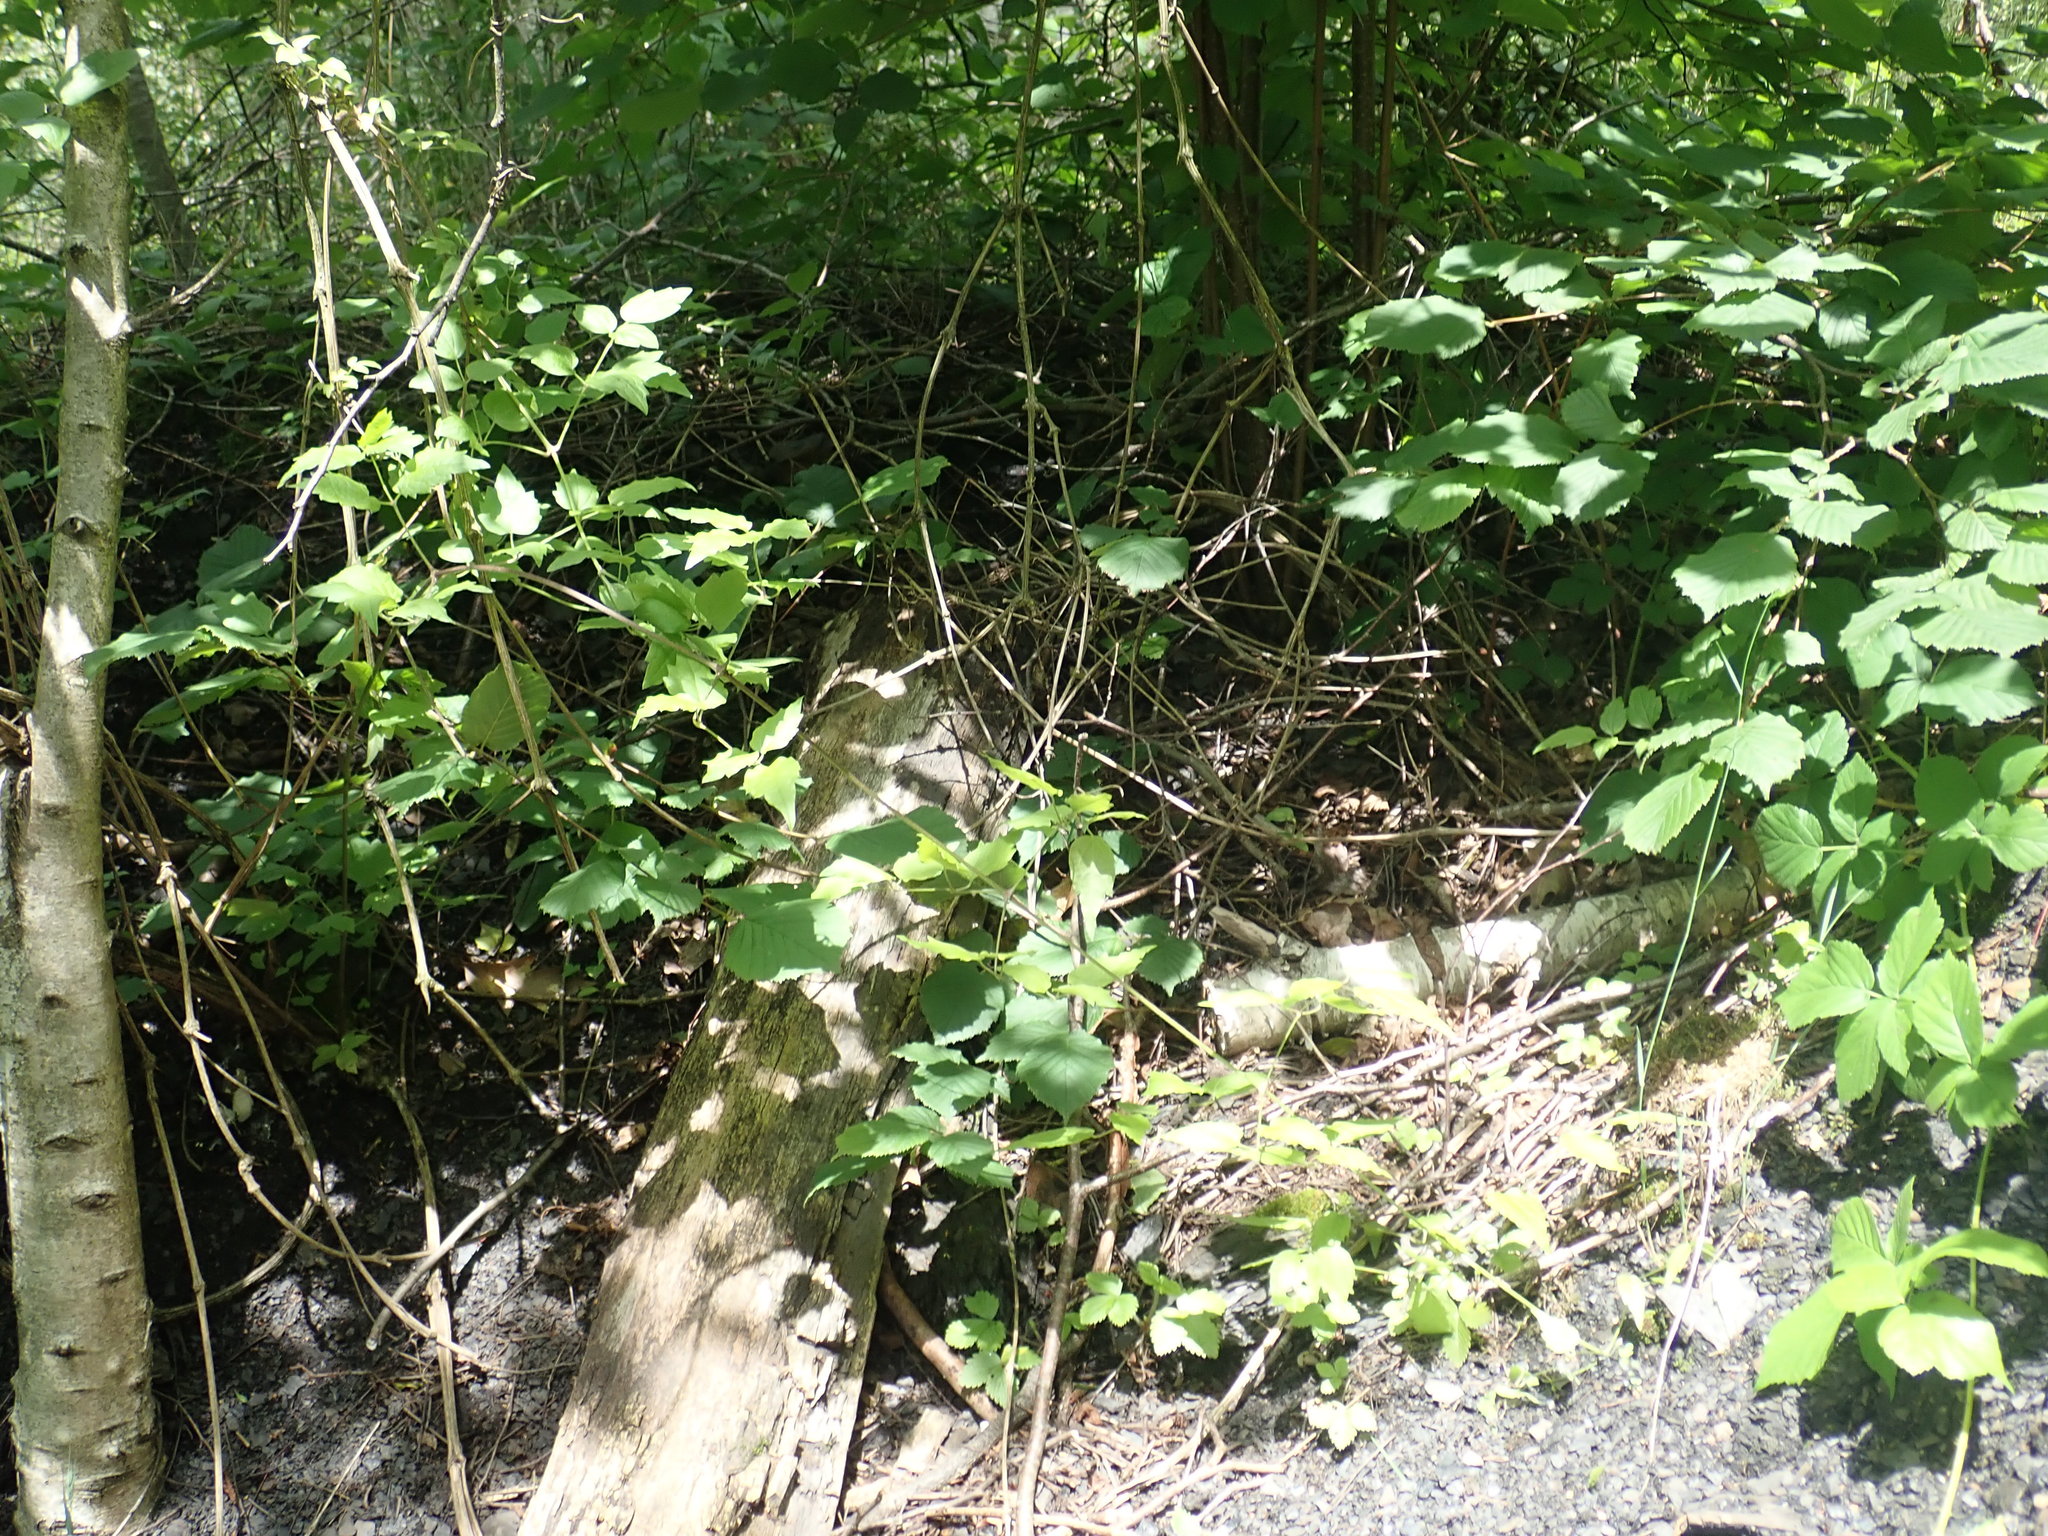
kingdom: Plantae
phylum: Tracheophyta
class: Magnoliopsida
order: Ranunculales
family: Ranunculaceae
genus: Clematis
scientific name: Clematis vitalba
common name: Evergreen clematis
